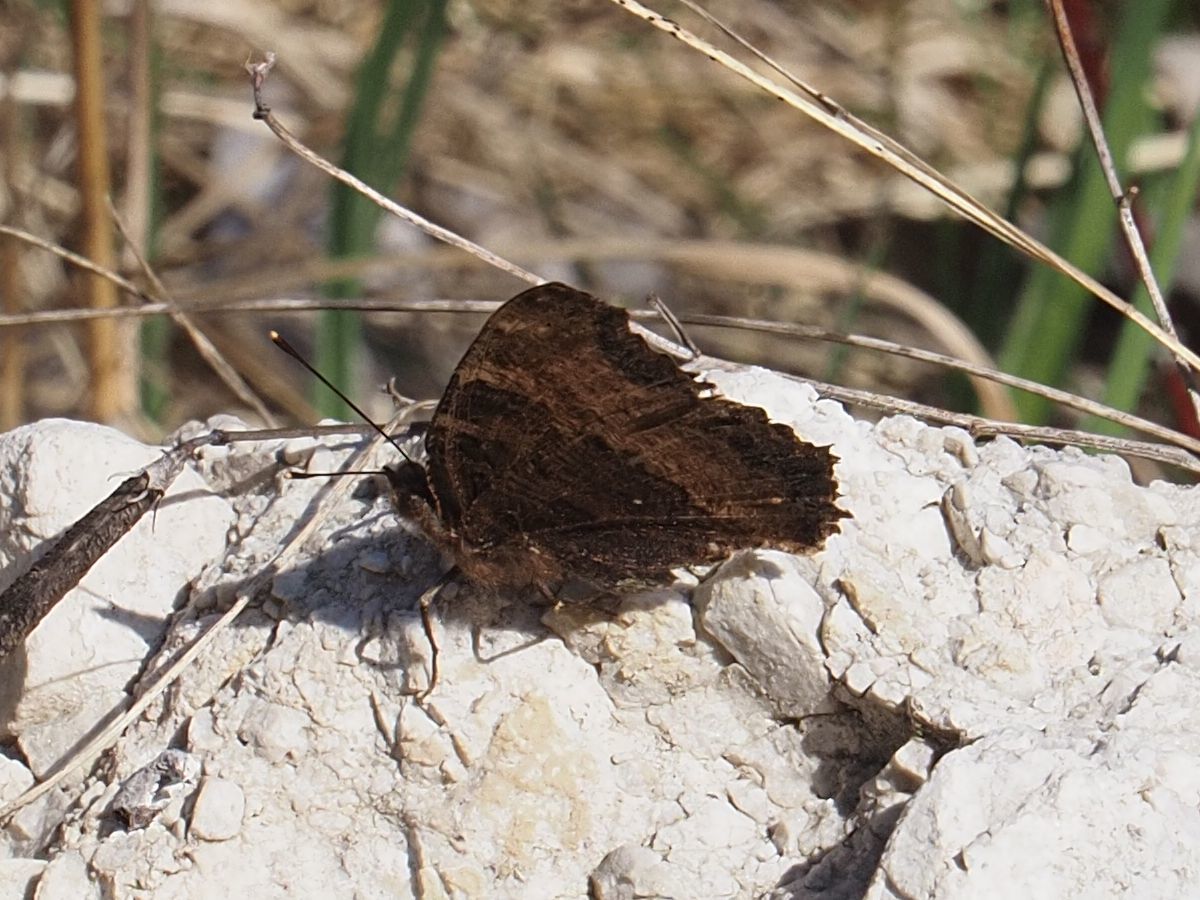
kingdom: Animalia
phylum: Arthropoda
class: Insecta
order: Lepidoptera
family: Nymphalidae
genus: Nymphalis
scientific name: Nymphalis polychloros
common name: Large tortoiseshell
